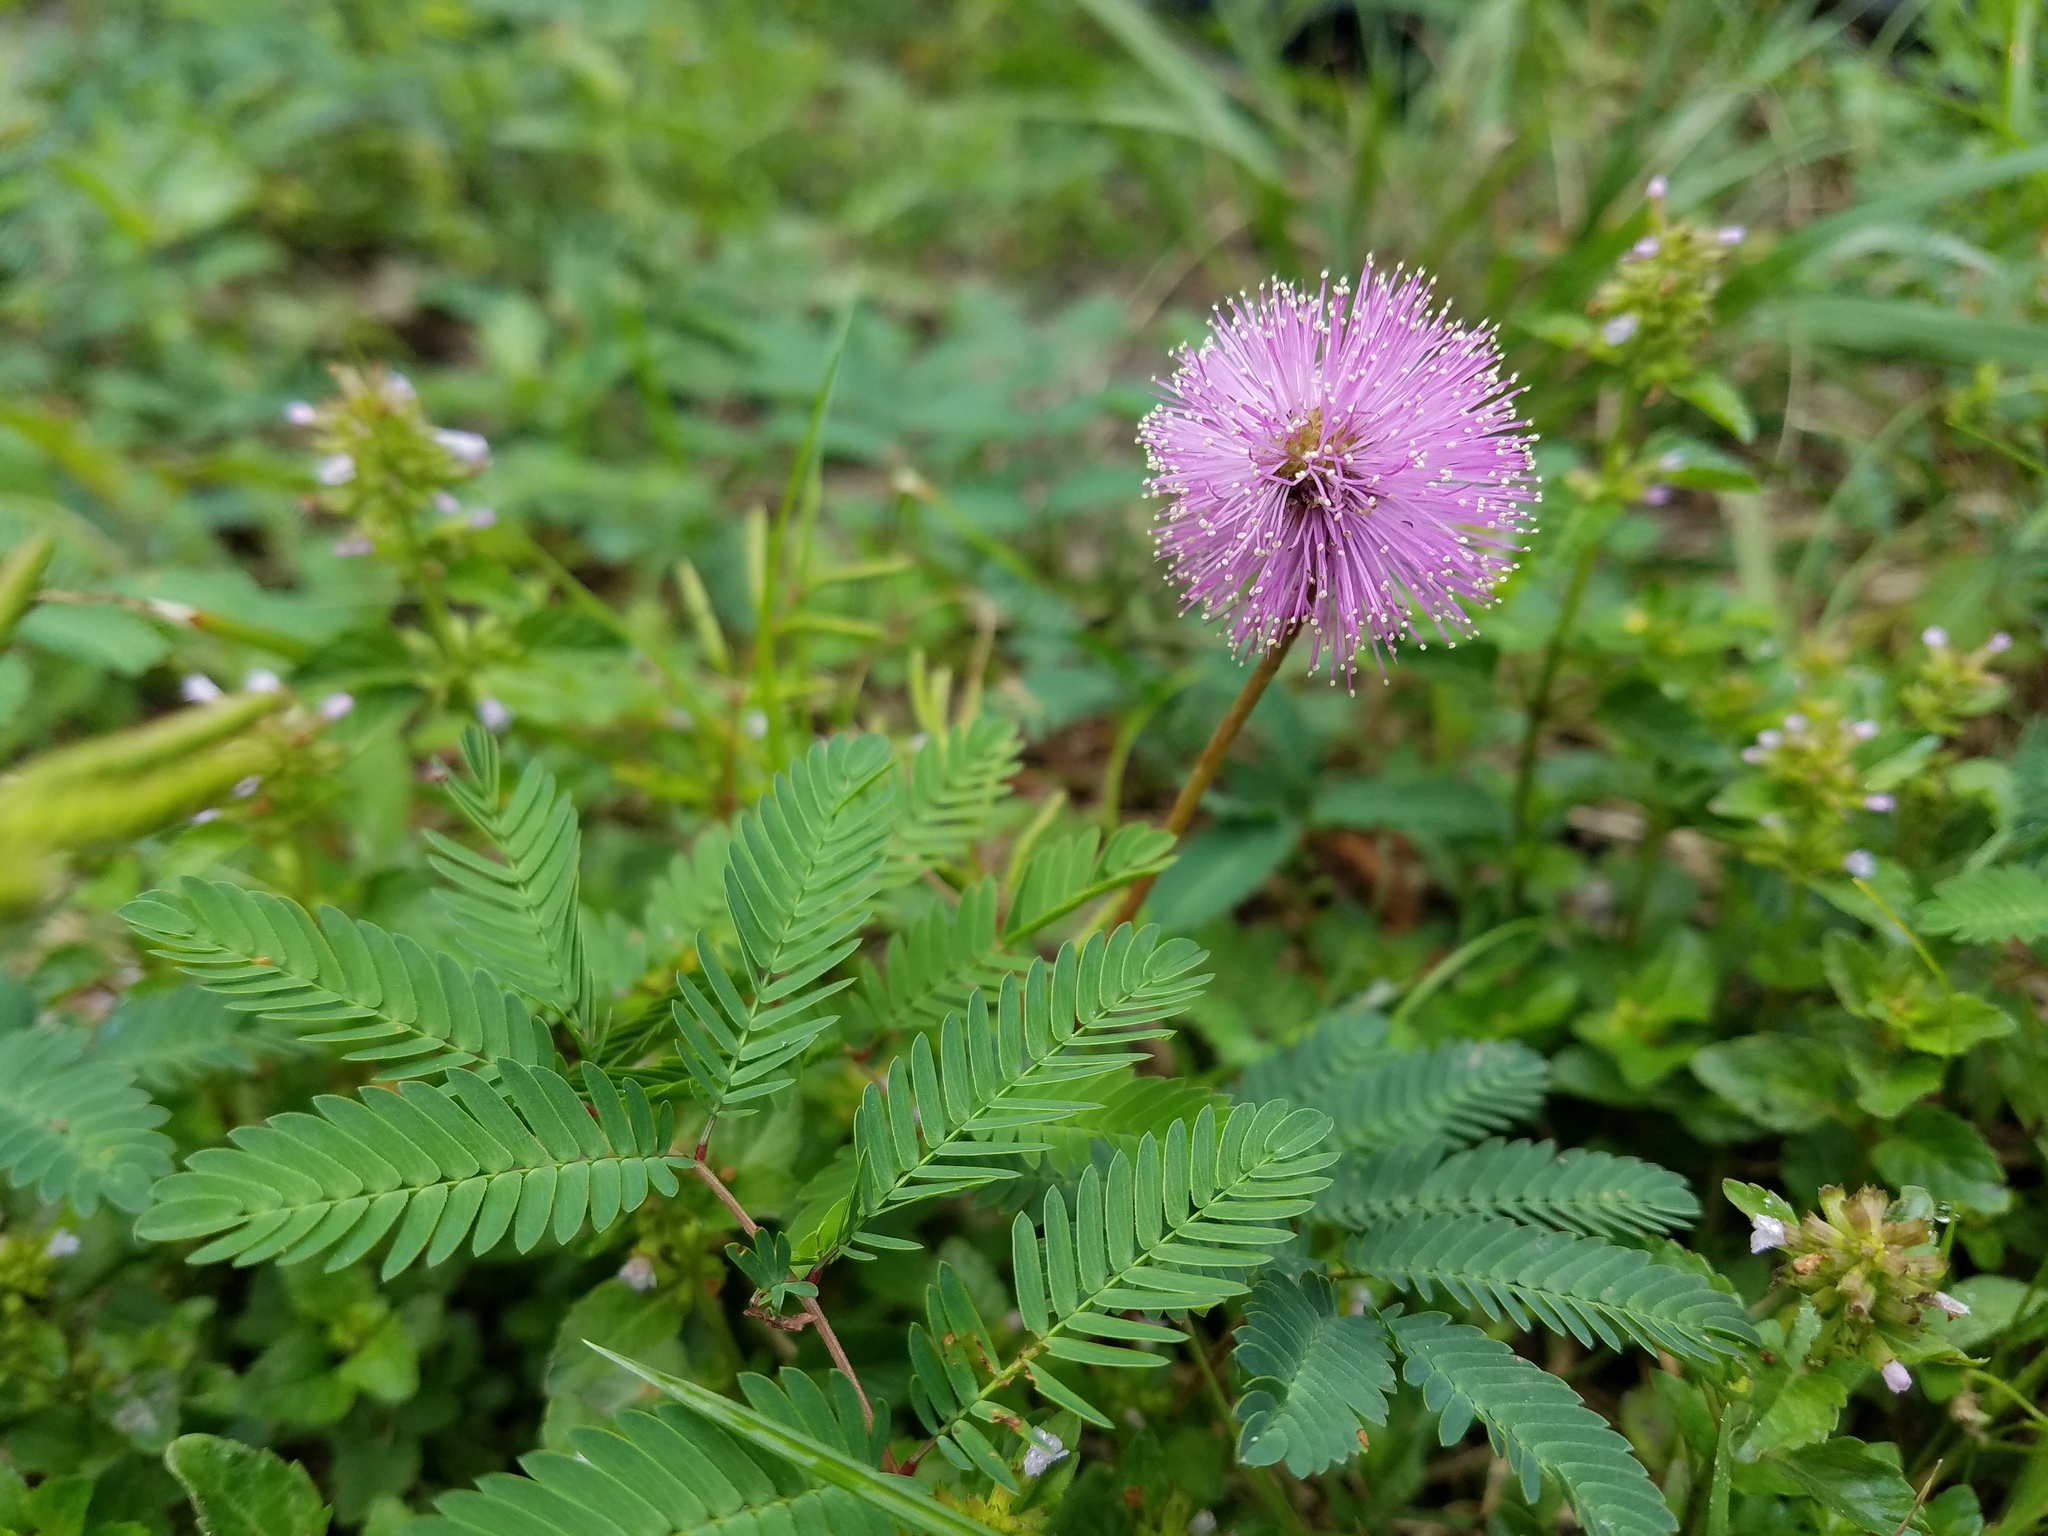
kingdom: Plantae
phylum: Tracheophyta
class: Magnoliopsida
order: Fabales
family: Fabaceae
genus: Mimosa
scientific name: Mimosa strigillosa
